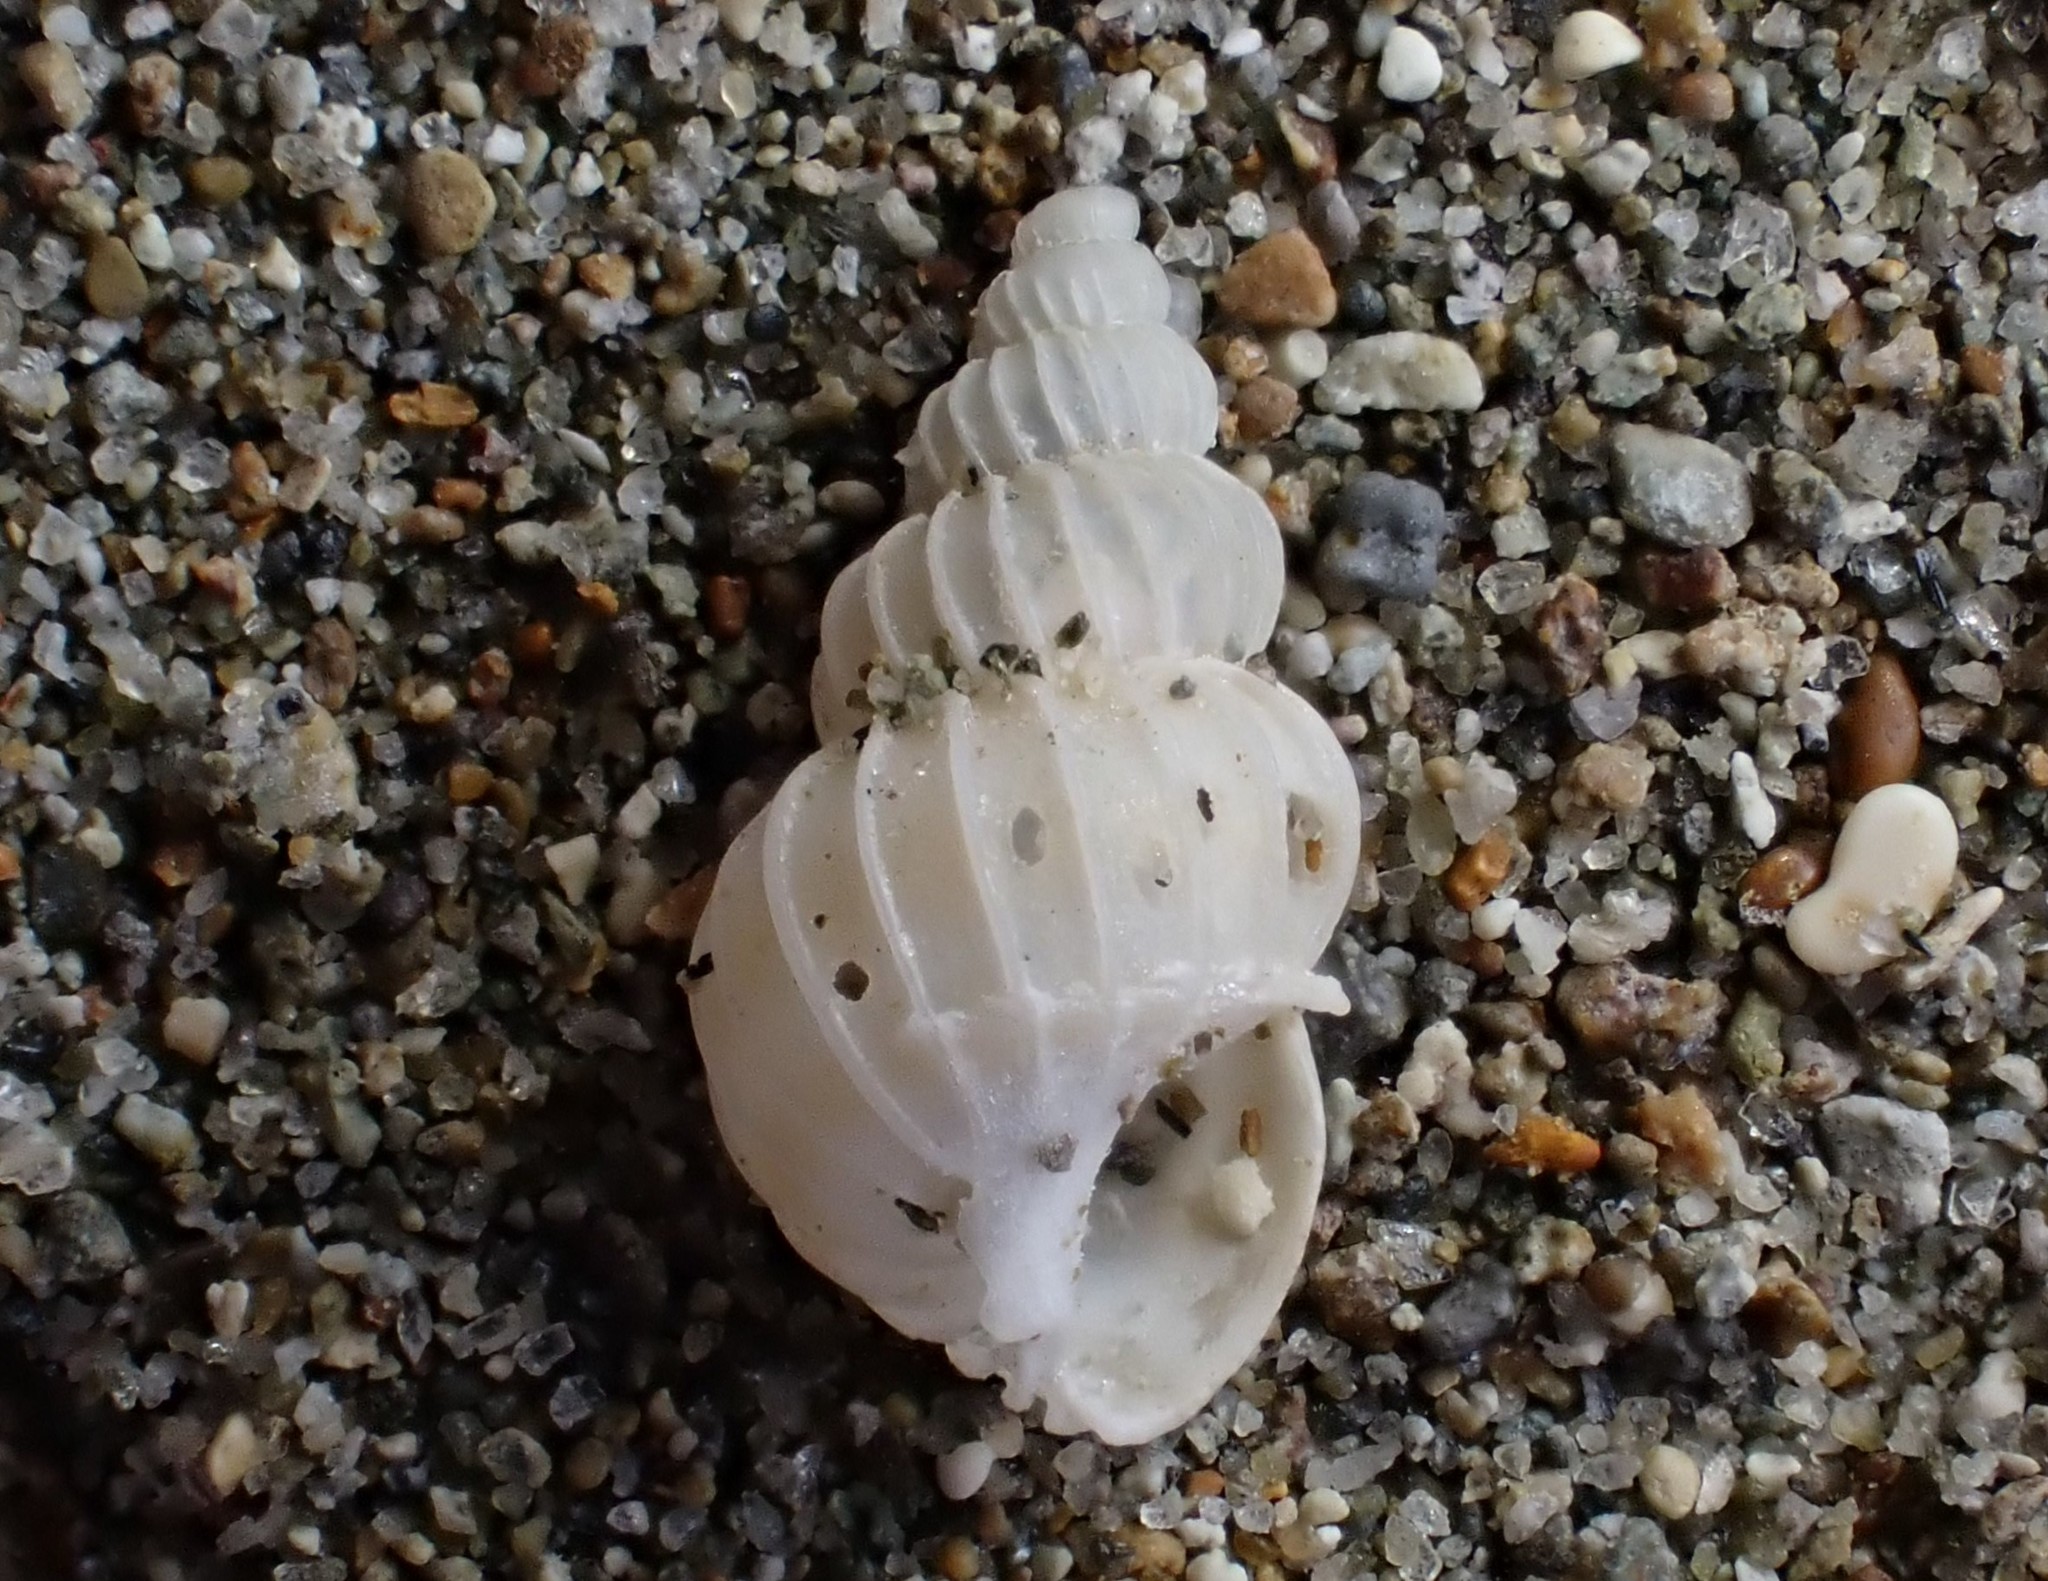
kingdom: Animalia
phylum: Mollusca
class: Gastropoda
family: Epitoniidae
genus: Epitonium
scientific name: Epitonium tenellum
